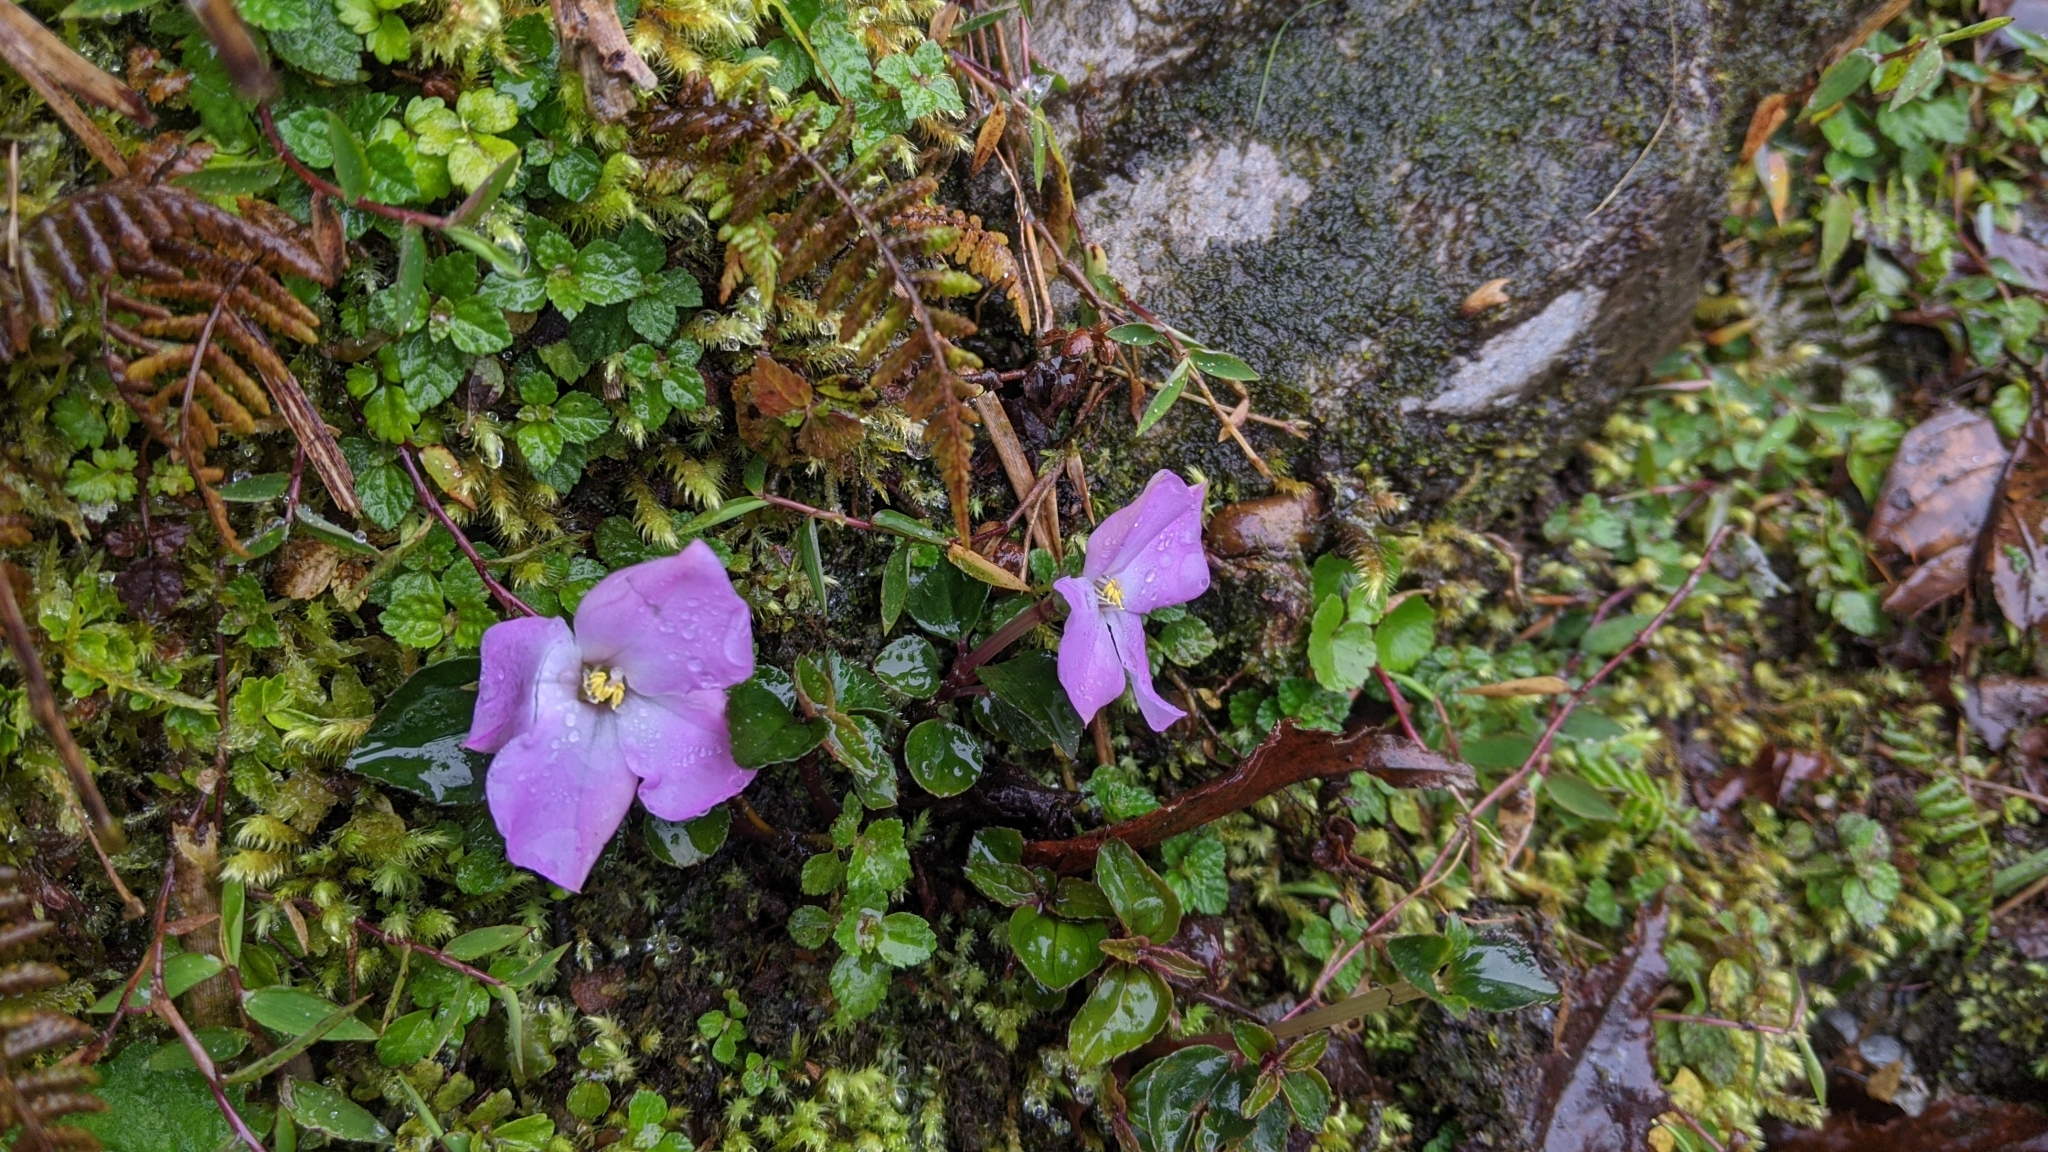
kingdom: Plantae
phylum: Tracheophyta
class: Magnoliopsida
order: Myrtales
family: Melastomataceae
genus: Sarcopyramis
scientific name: Sarcopyramis bodinieri
